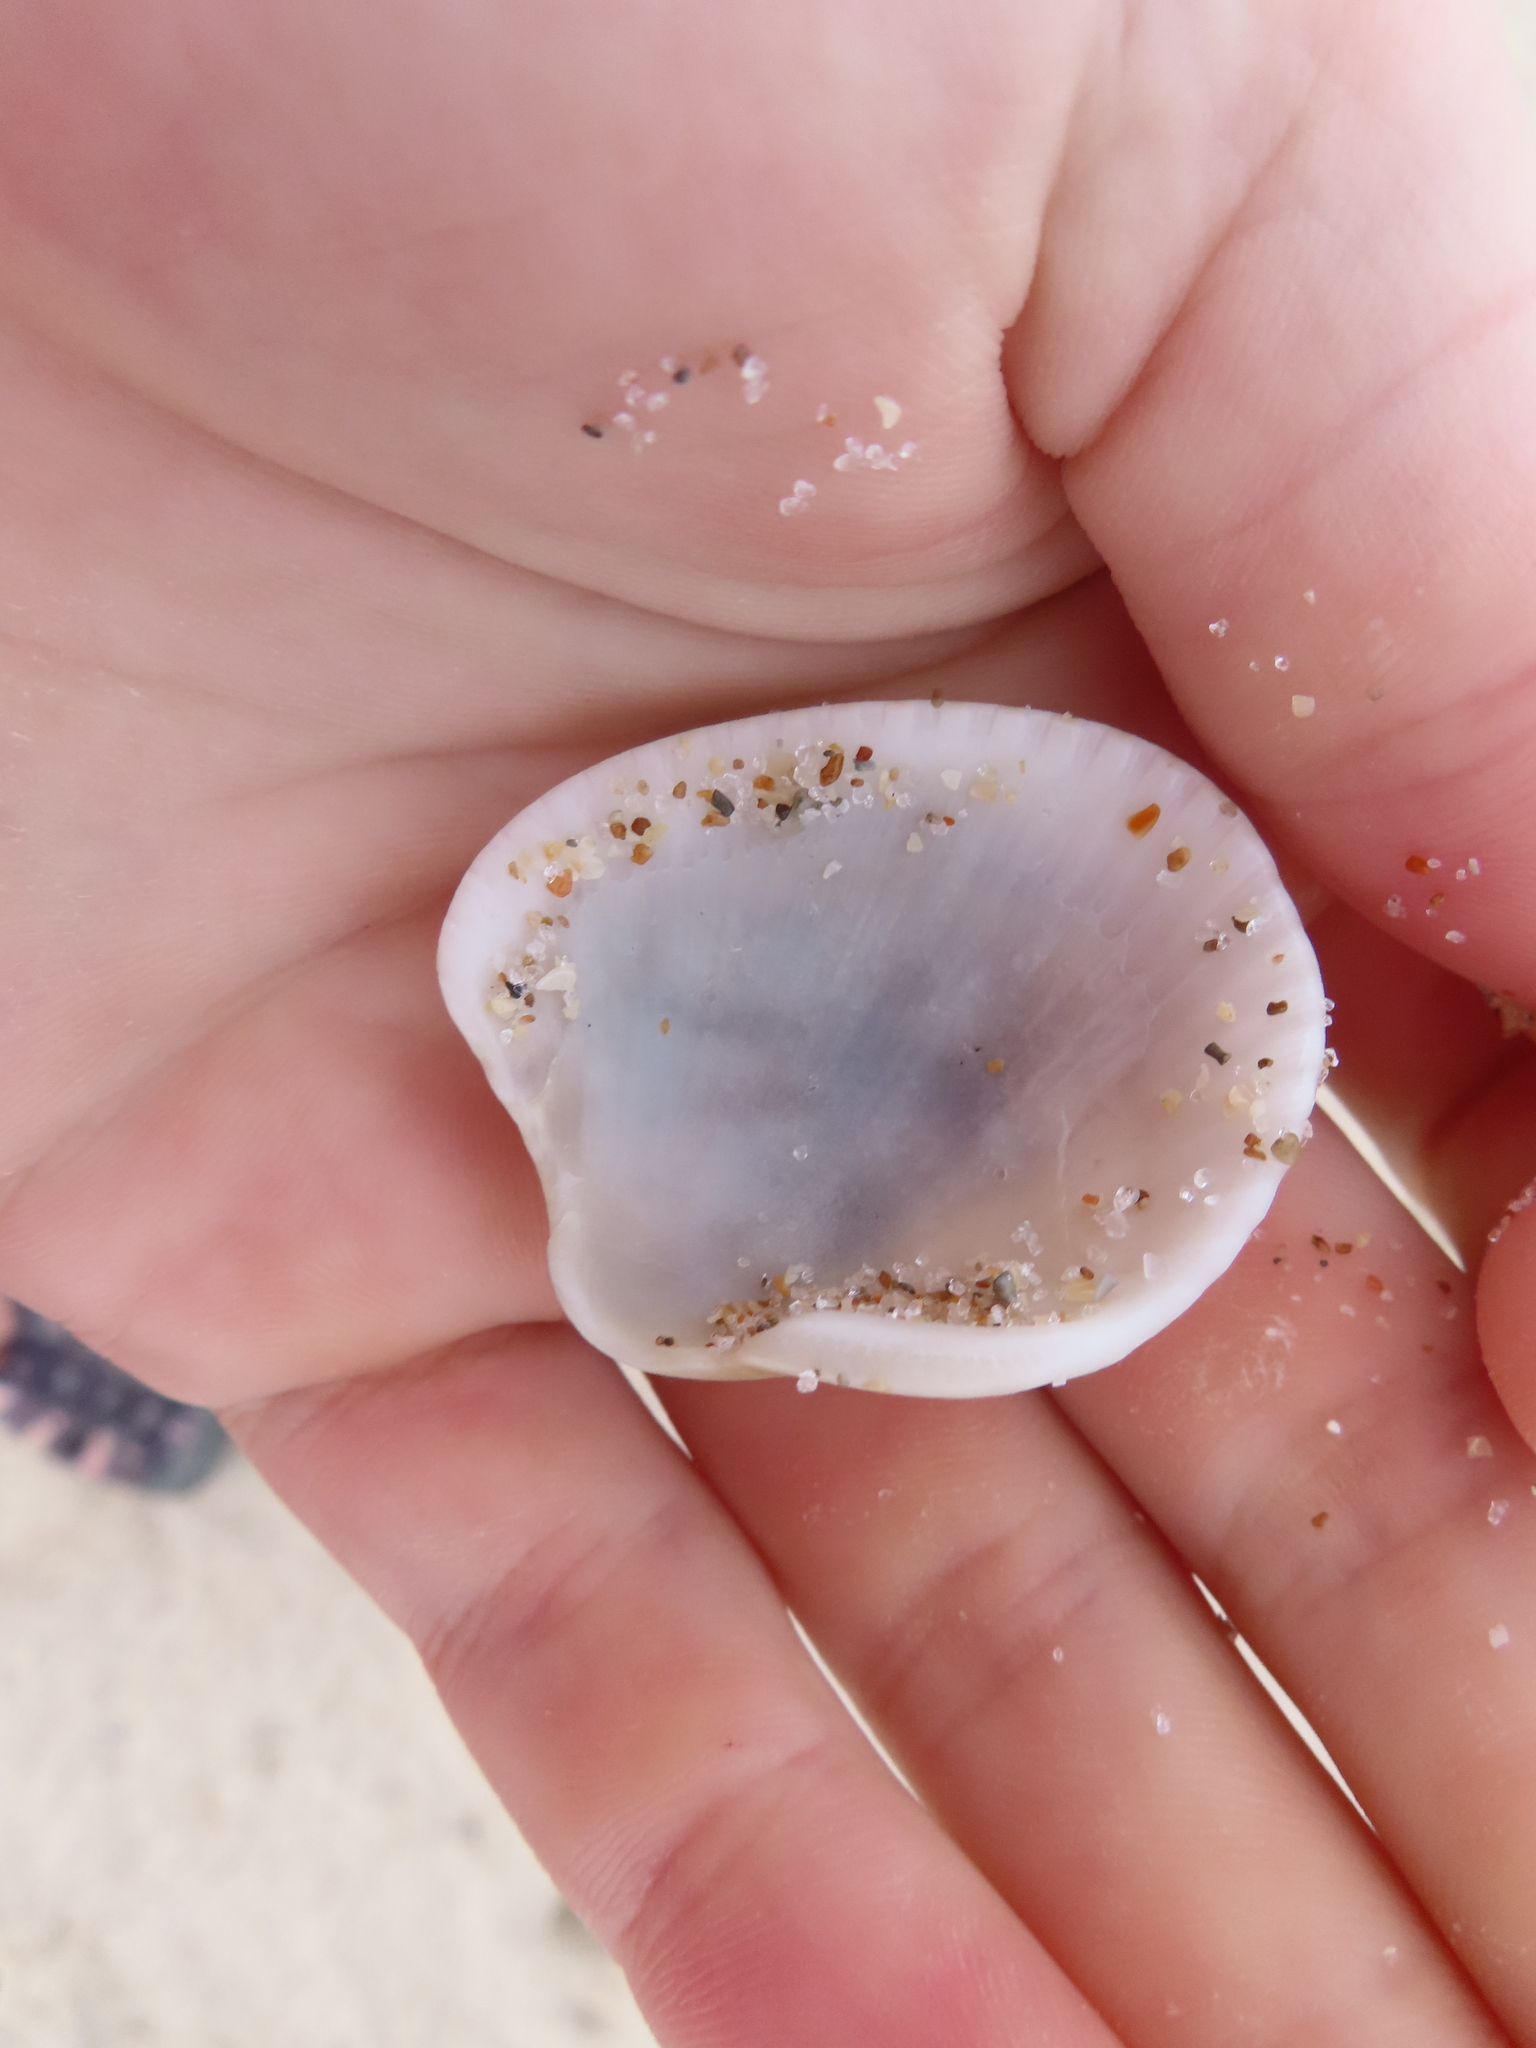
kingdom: Animalia
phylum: Mollusca
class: Bivalvia
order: Arcida
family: Arcidae
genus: Lunarca
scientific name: Lunarca ovalis
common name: Blood ark
